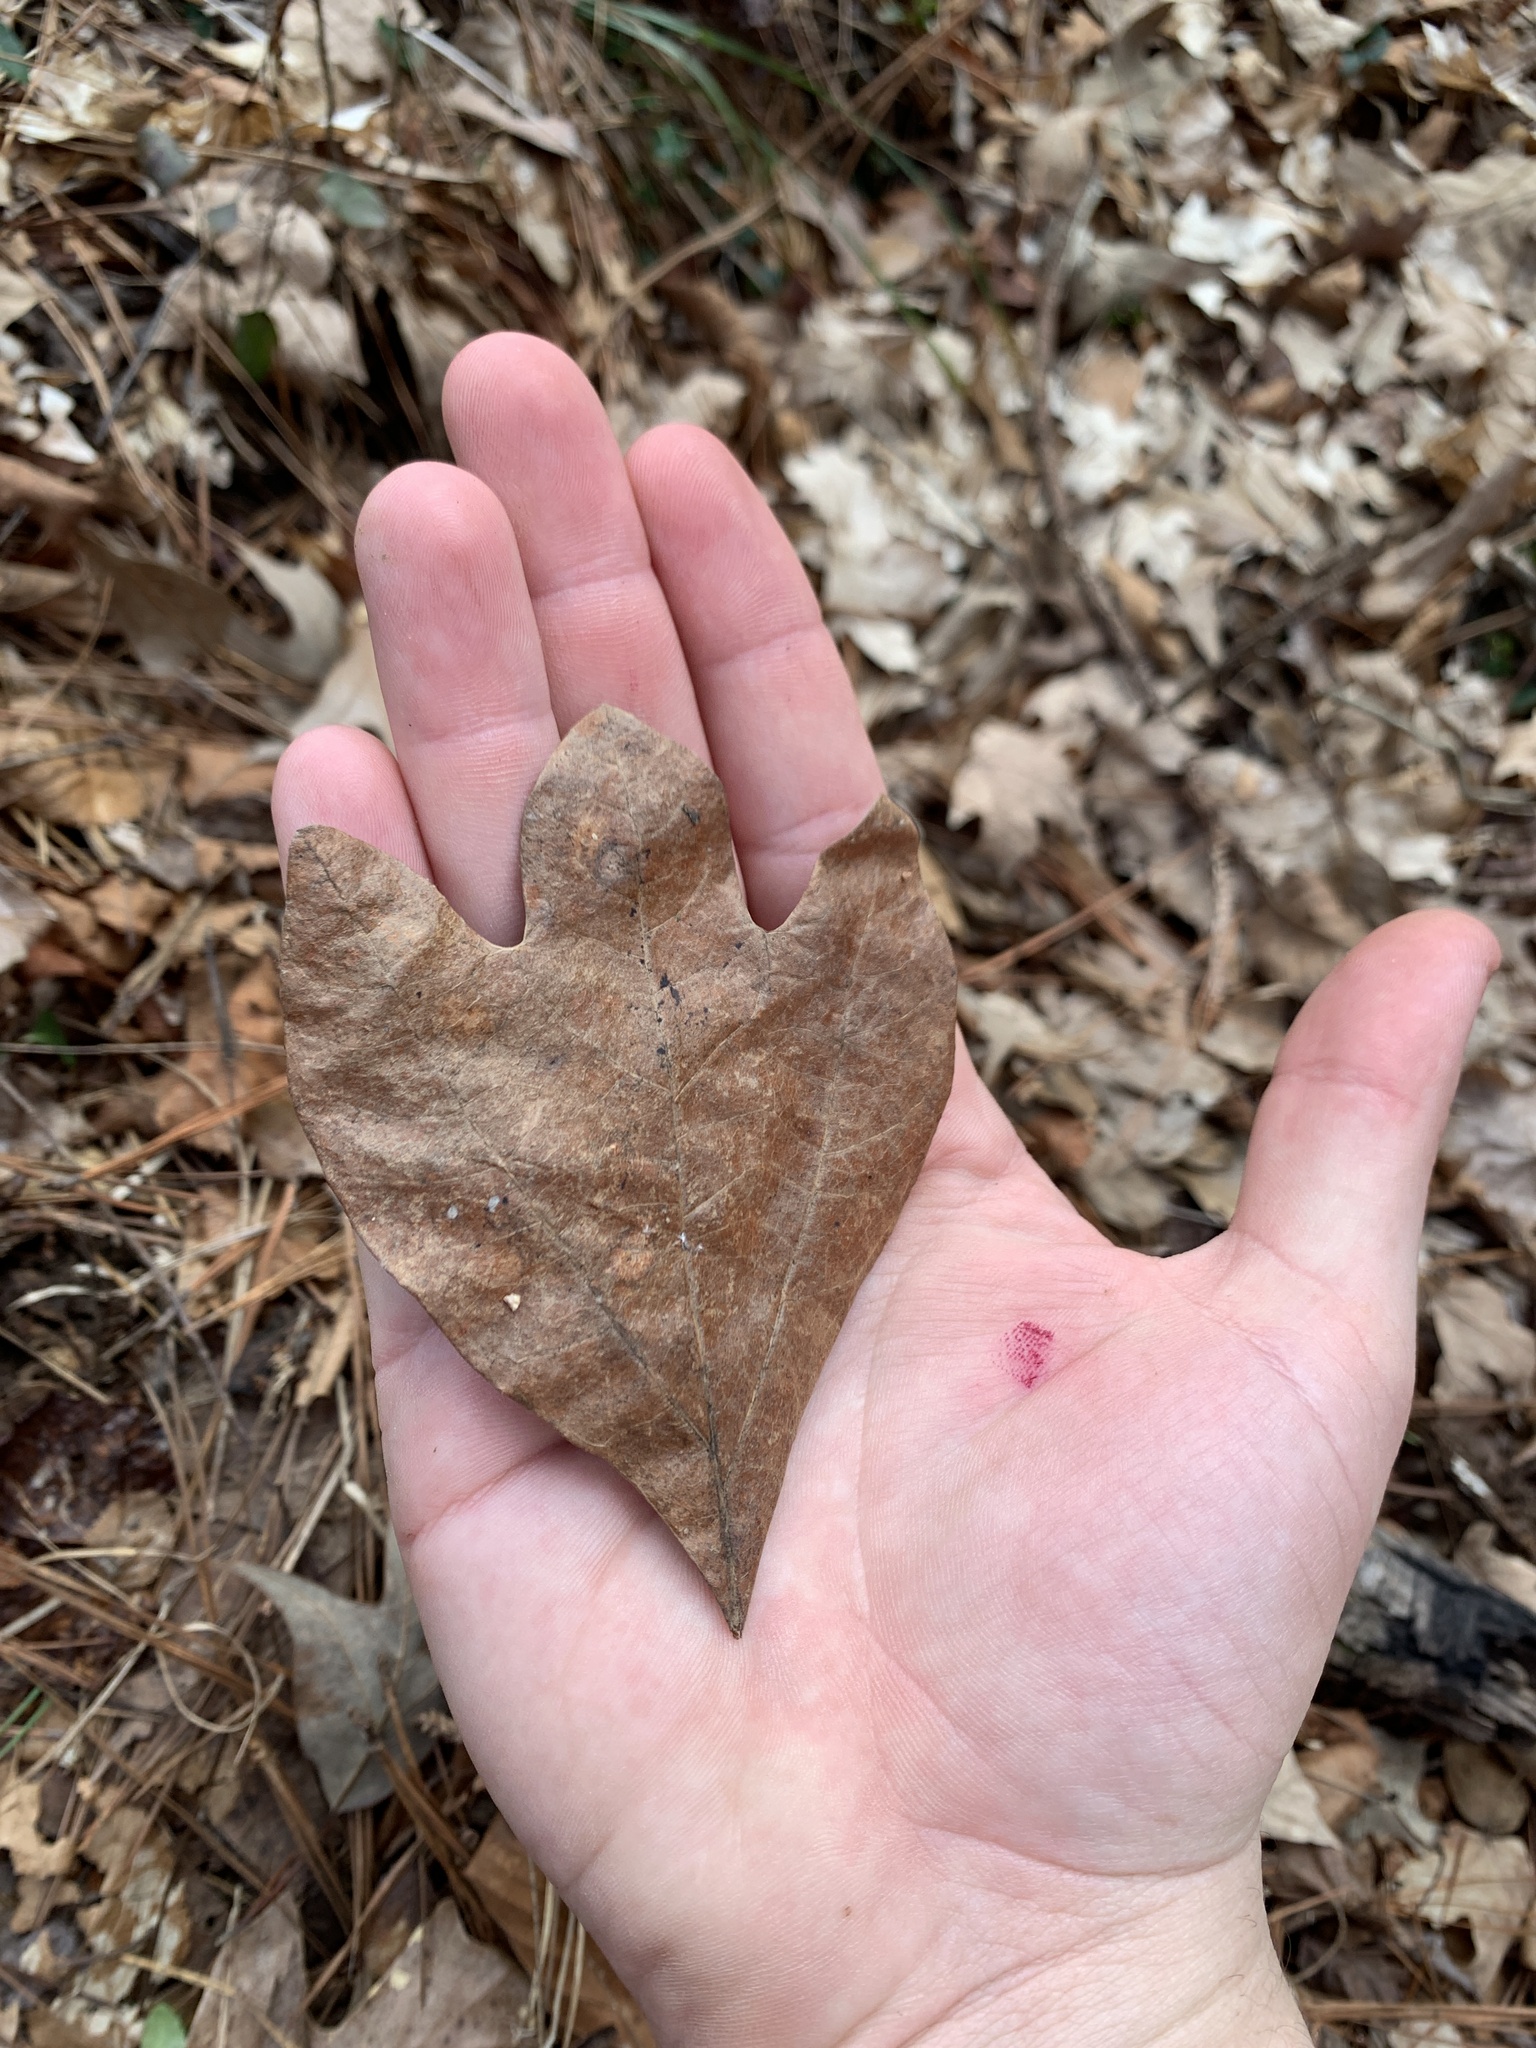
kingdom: Plantae
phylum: Tracheophyta
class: Magnoliopsida
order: Laurales
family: Lauraceae
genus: Sassafras
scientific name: Sassafras albidum
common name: Sassafras
